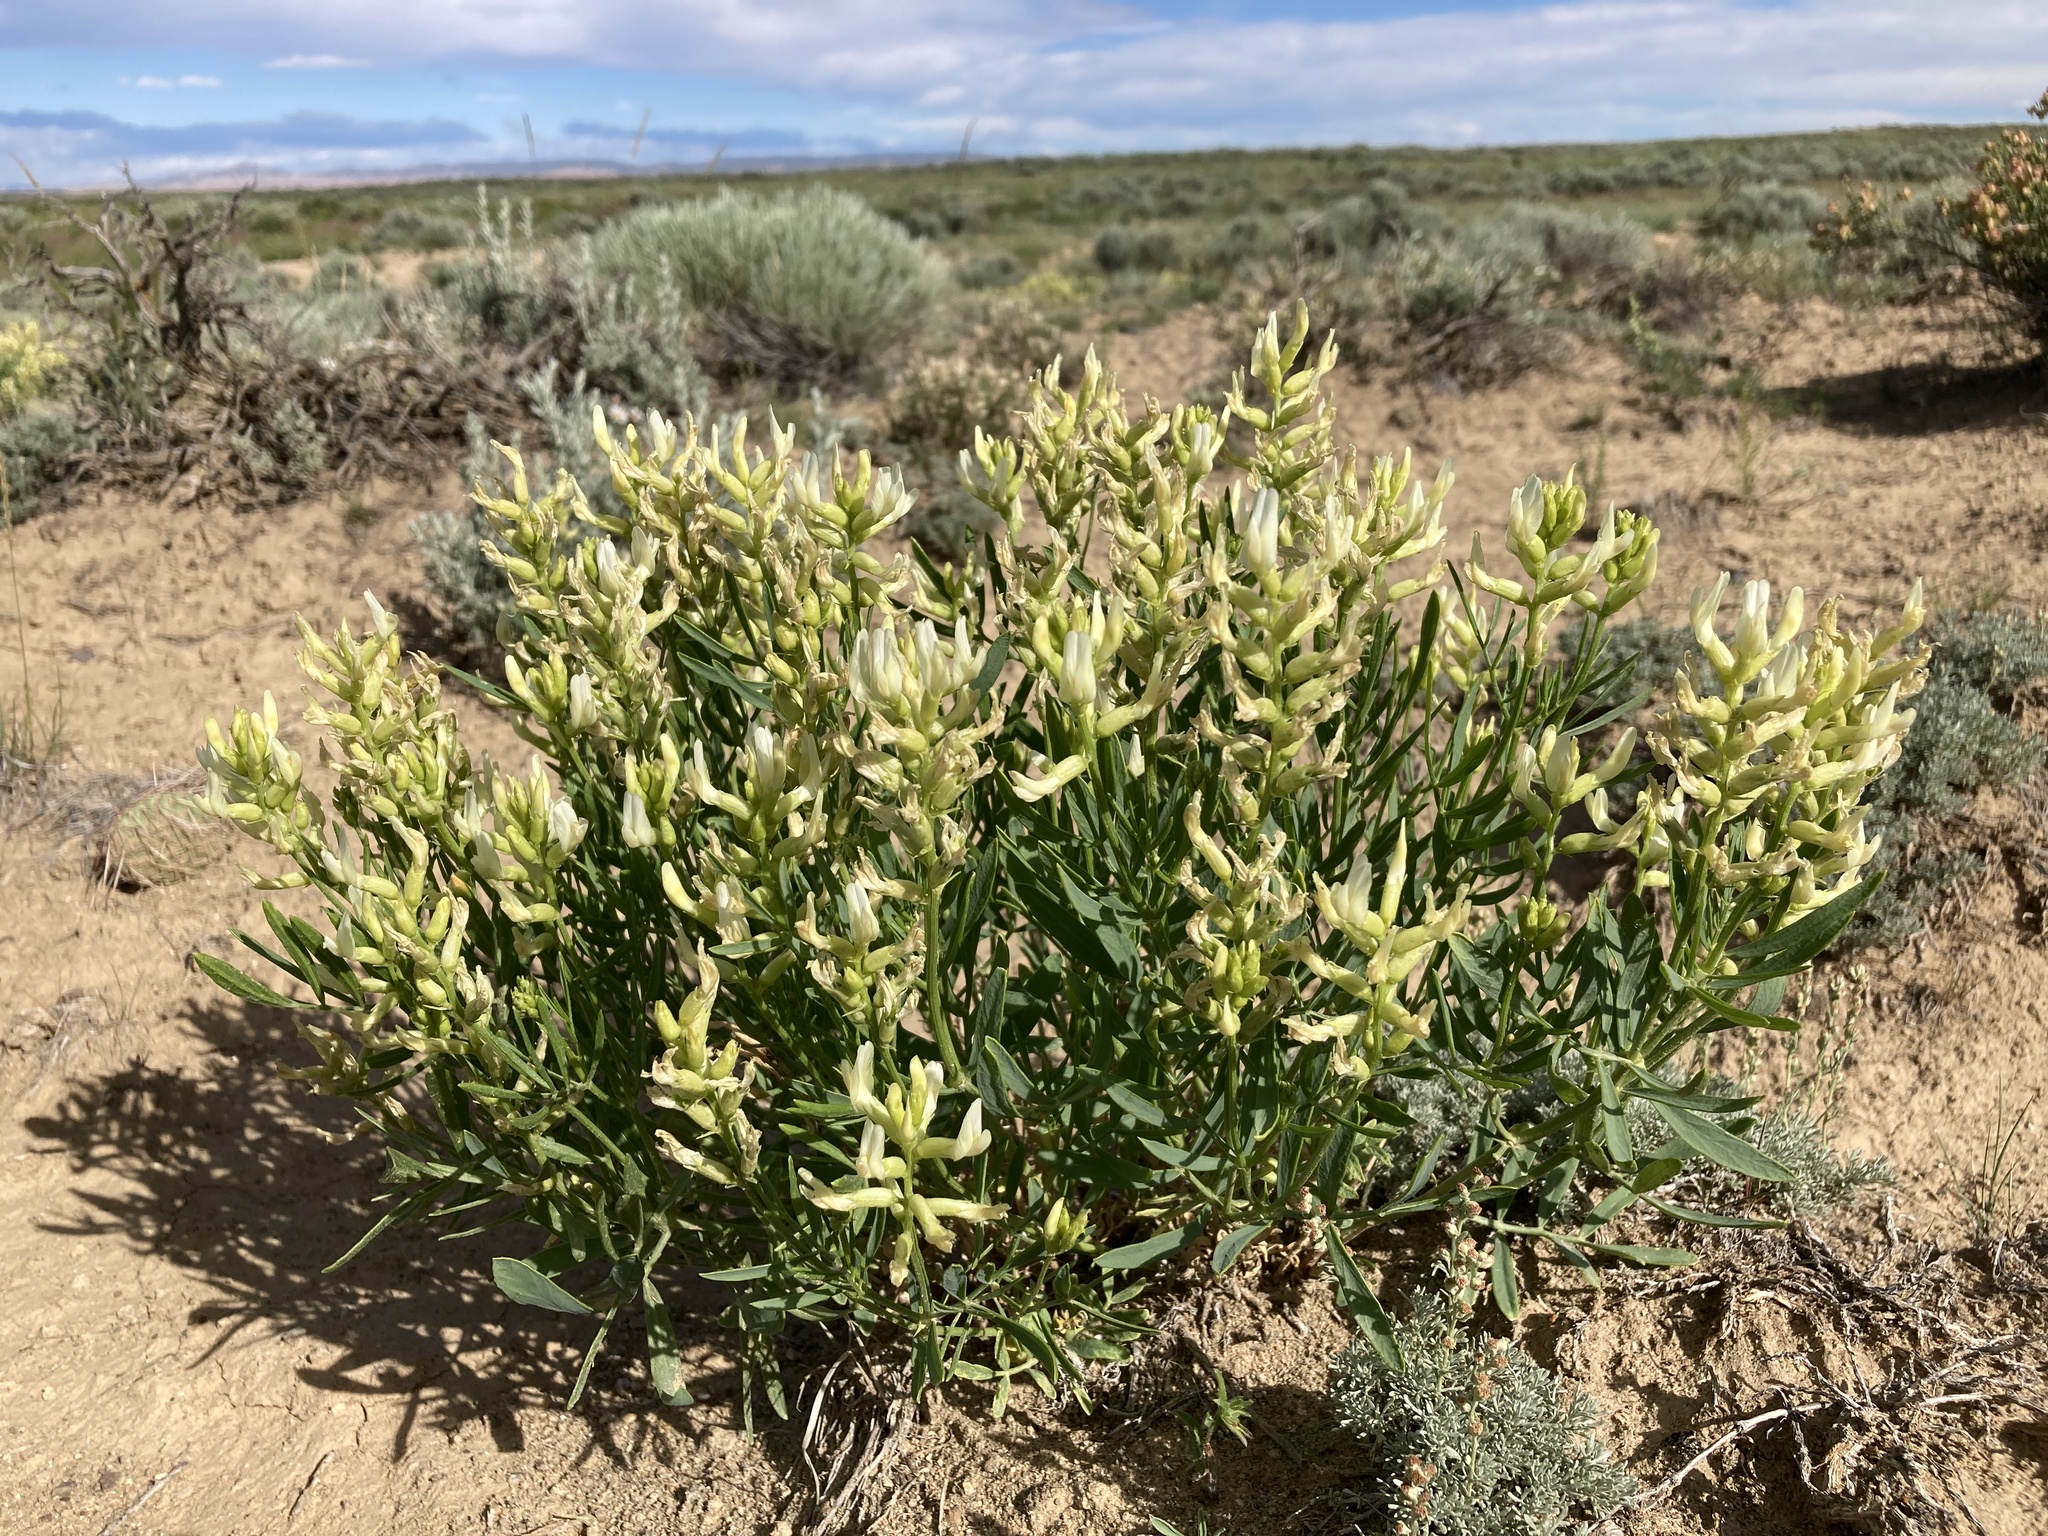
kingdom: Plantae
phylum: Tracheophyta
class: Magnoliopsida
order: Fabales
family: Fabaceae
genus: Astragalus
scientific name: Astragalus grayi
